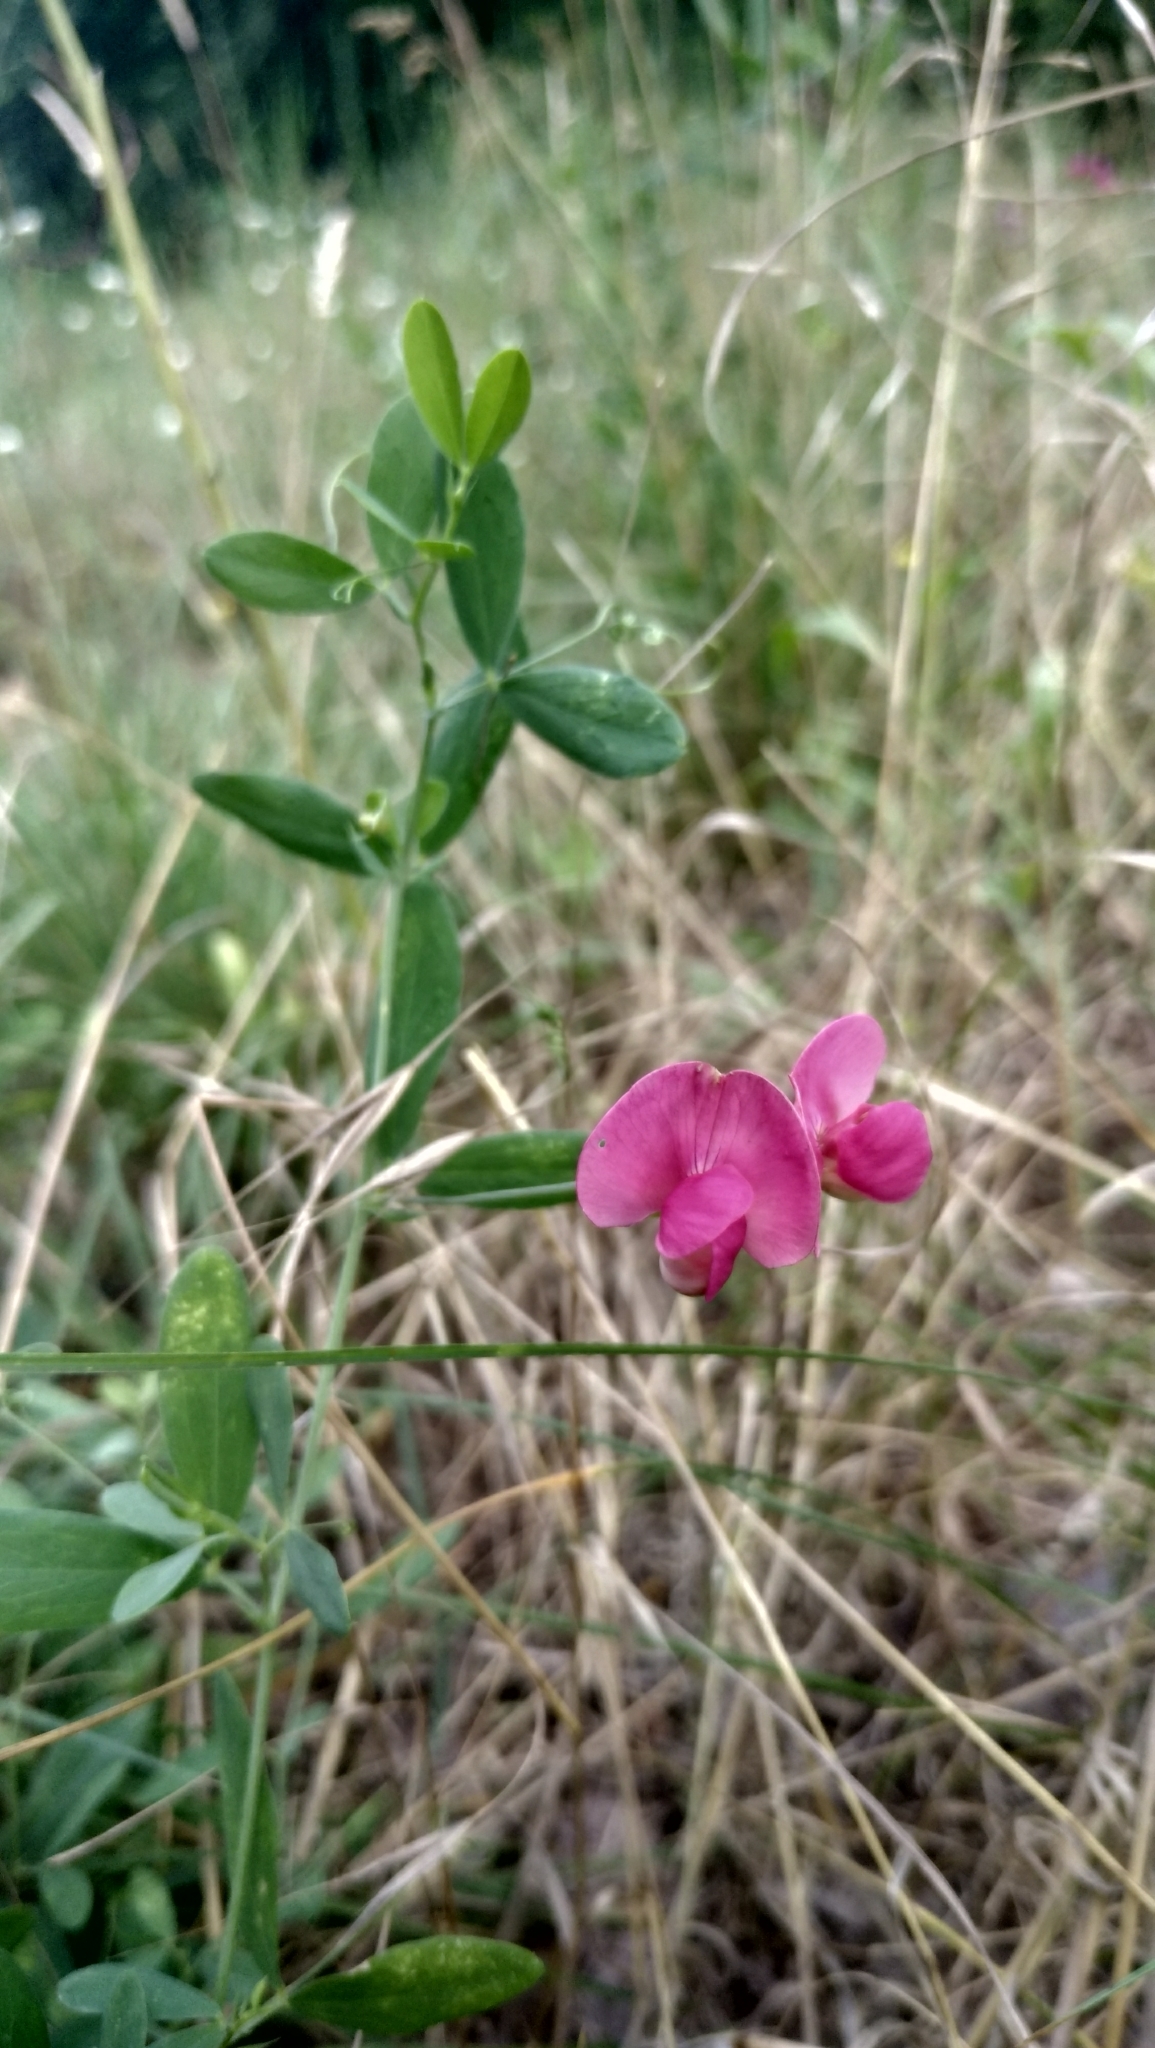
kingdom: Plantae
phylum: Tracheophyta
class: Magnoliopsida
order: Fabales
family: Fabaceae
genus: Lathyrus
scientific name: Lathyrus tuberosus
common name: Tuberous pea
